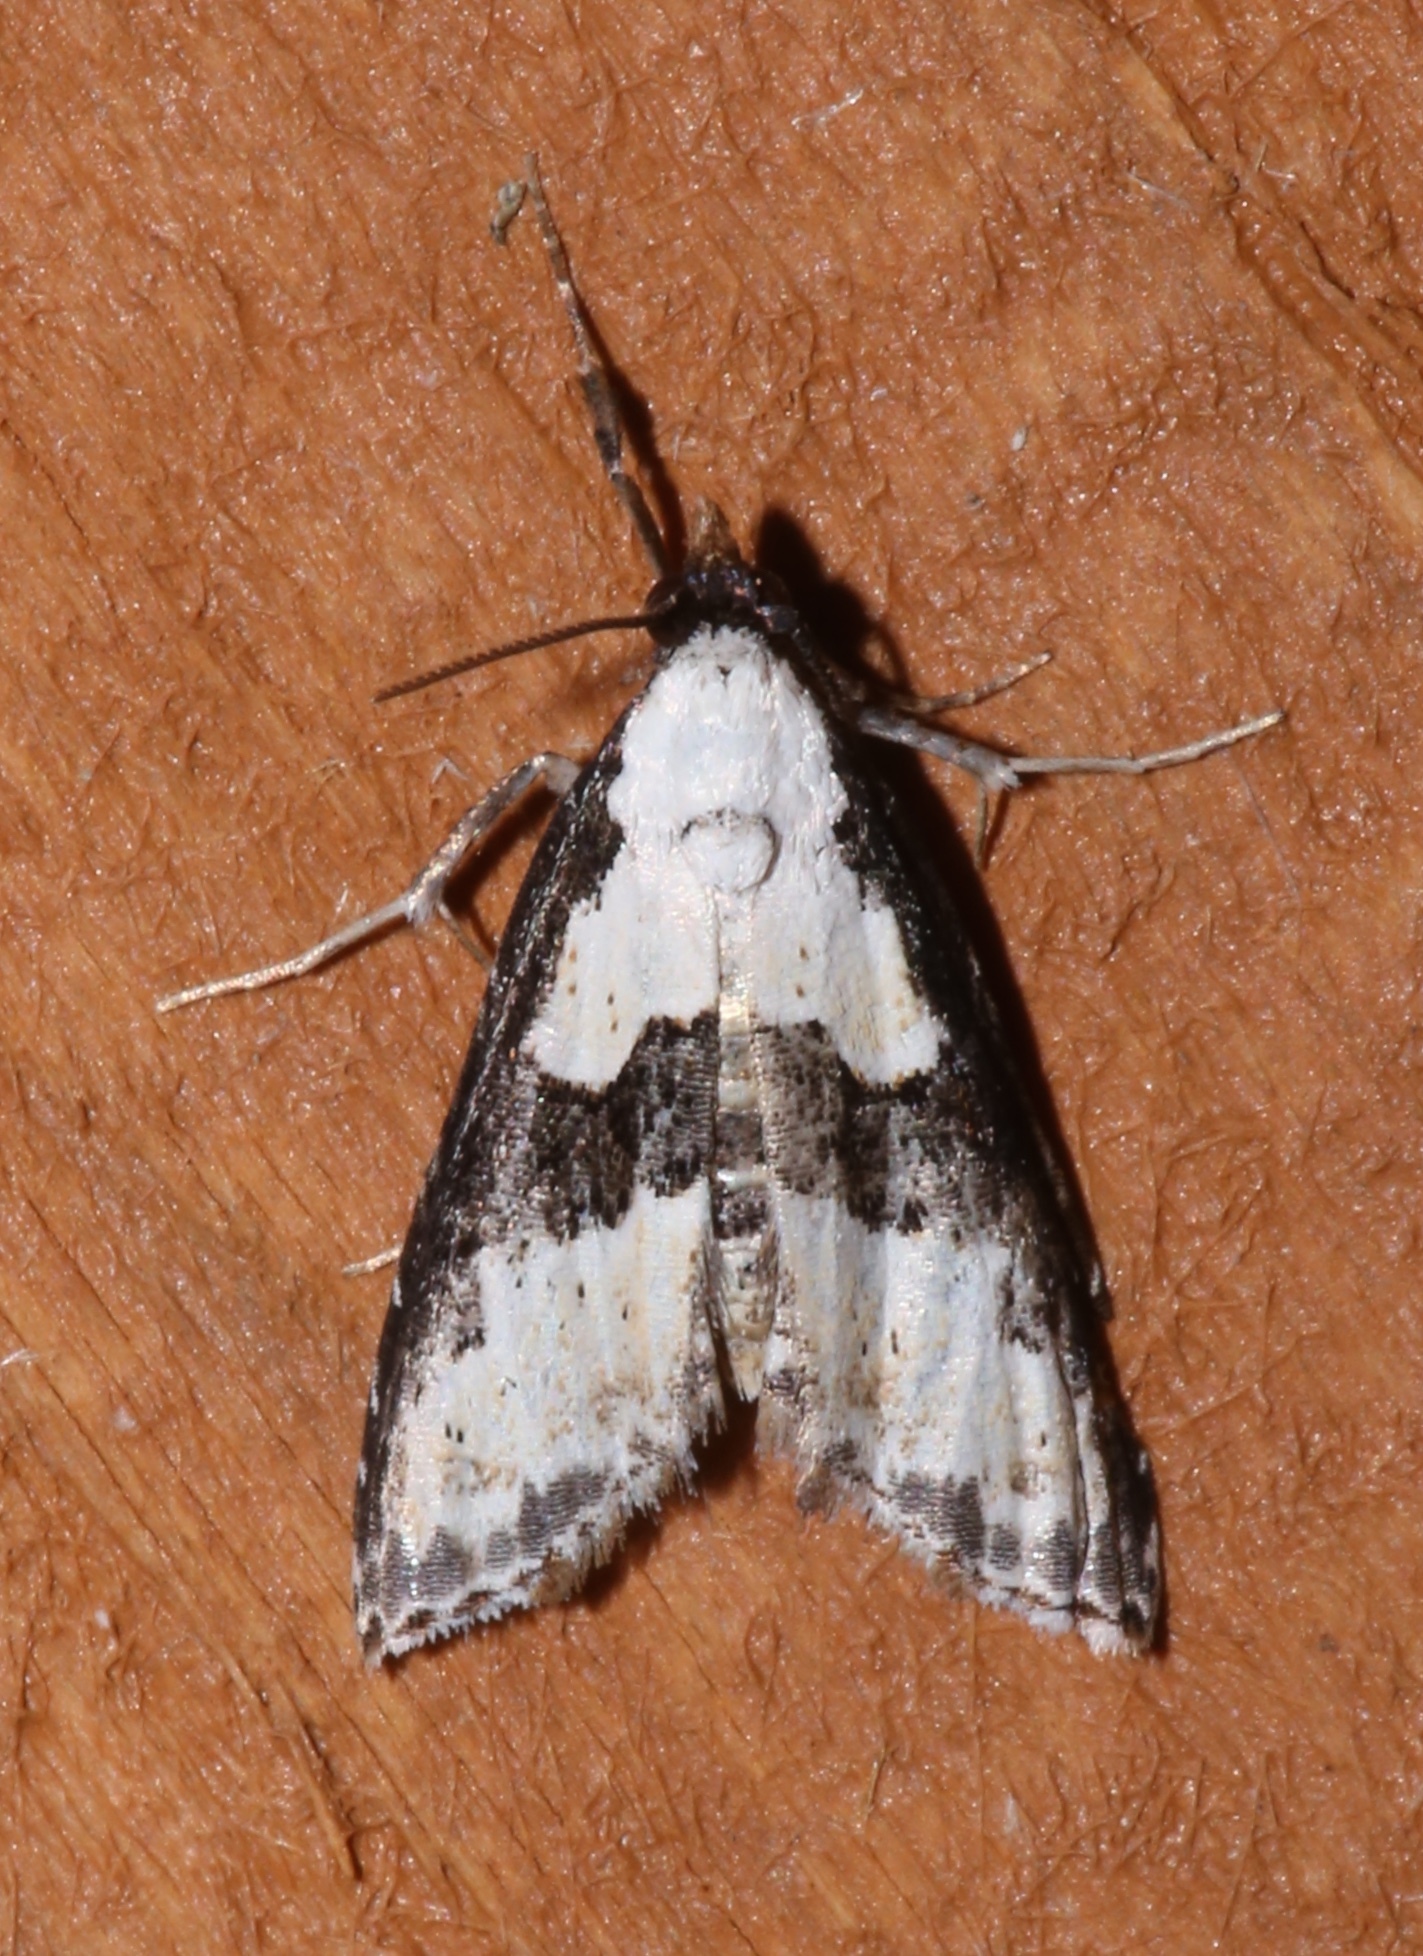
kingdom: Animalia
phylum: Arthropoda
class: Insecta
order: Lepidoptera
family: Noctuidae
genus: Nigetia
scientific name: Nigetia formosalis
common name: Thin-winged owlet
